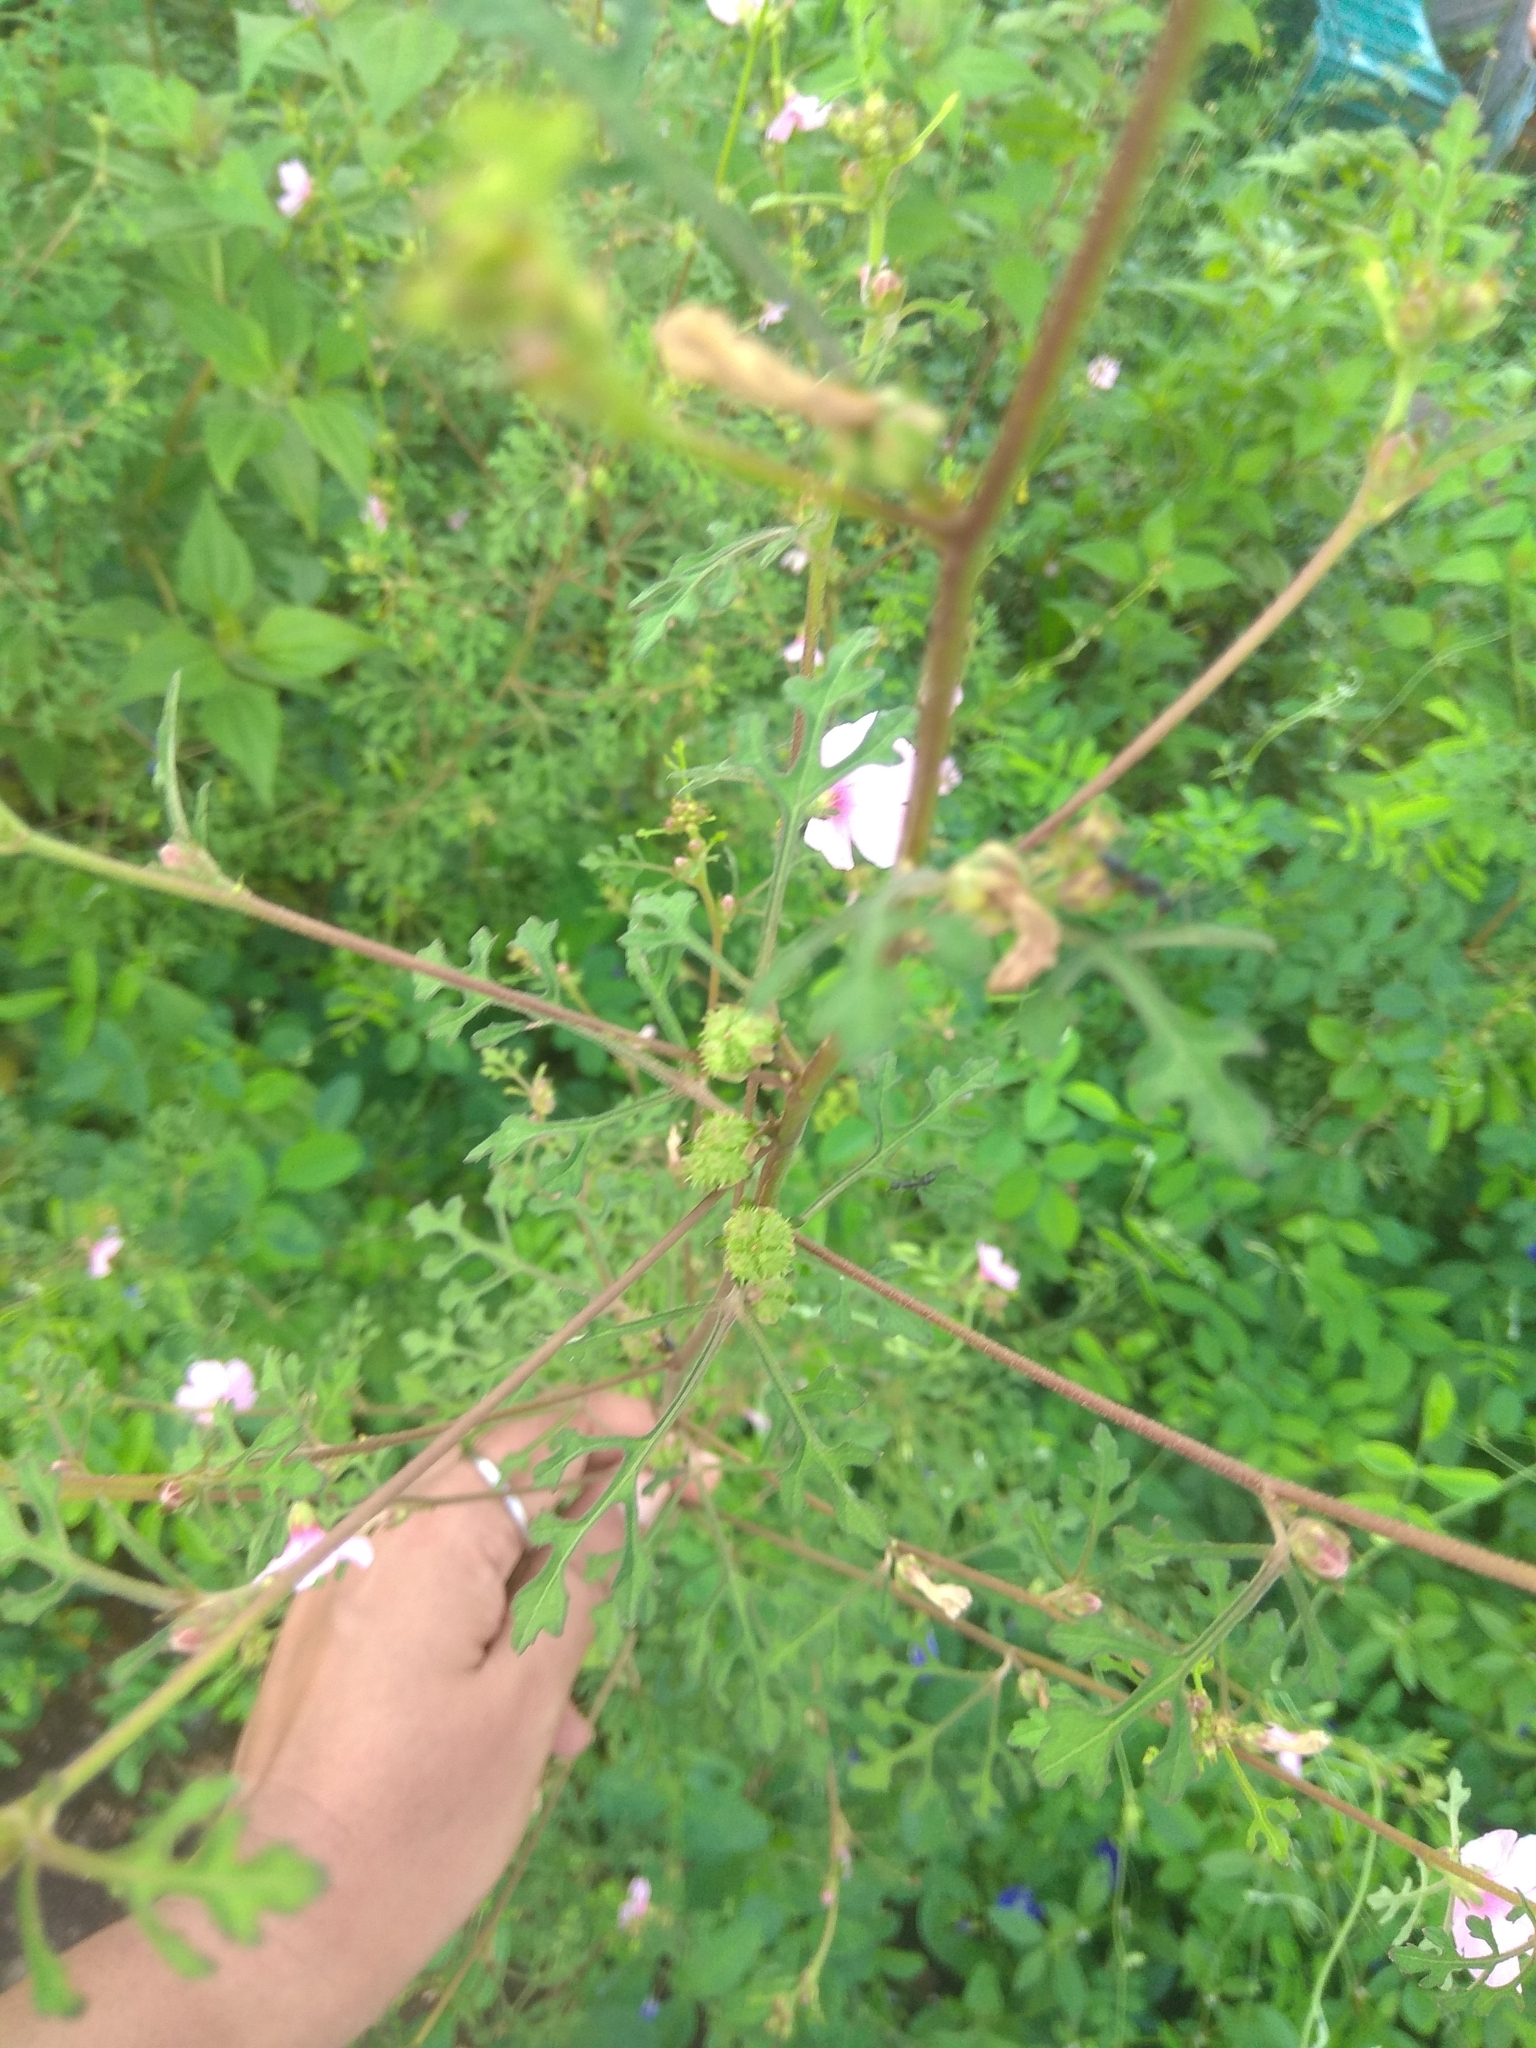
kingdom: Plantae
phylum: Tracheophyta
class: Magnoliopsida
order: Malvales
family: Malvaceae
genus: Urena
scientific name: Urena procumbens
